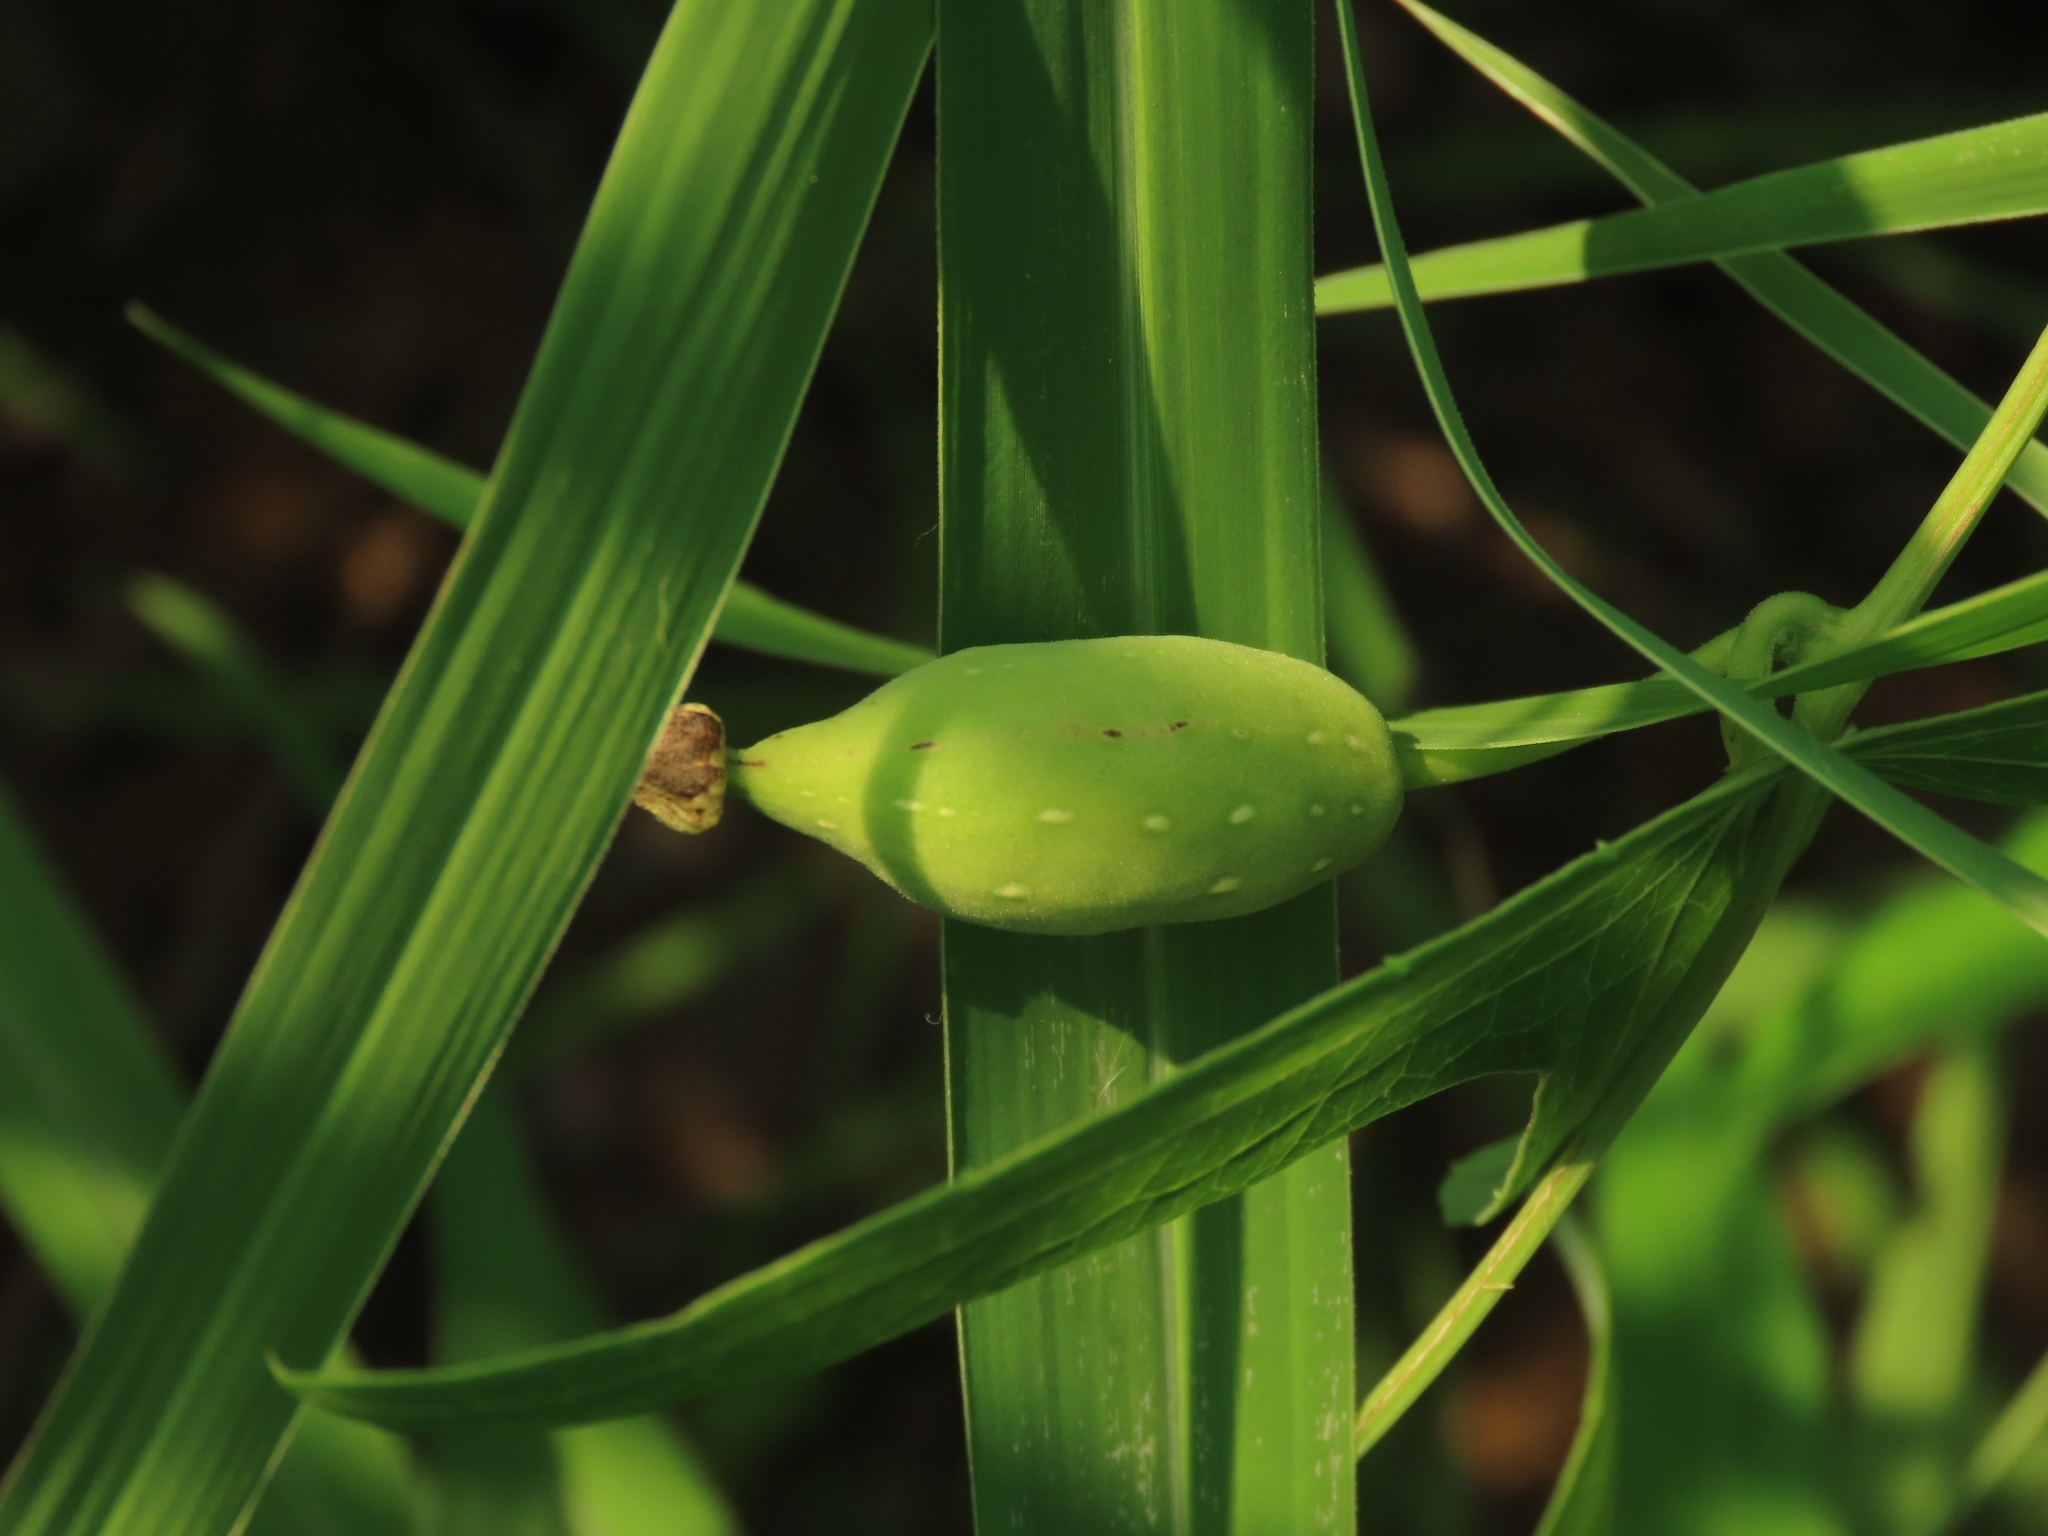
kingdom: Plantae
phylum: Tracheophyta
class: Magnoliopsida
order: Cucurbitales
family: Cucurbitaceae
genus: Solena
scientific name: Solena amplexicaulis
